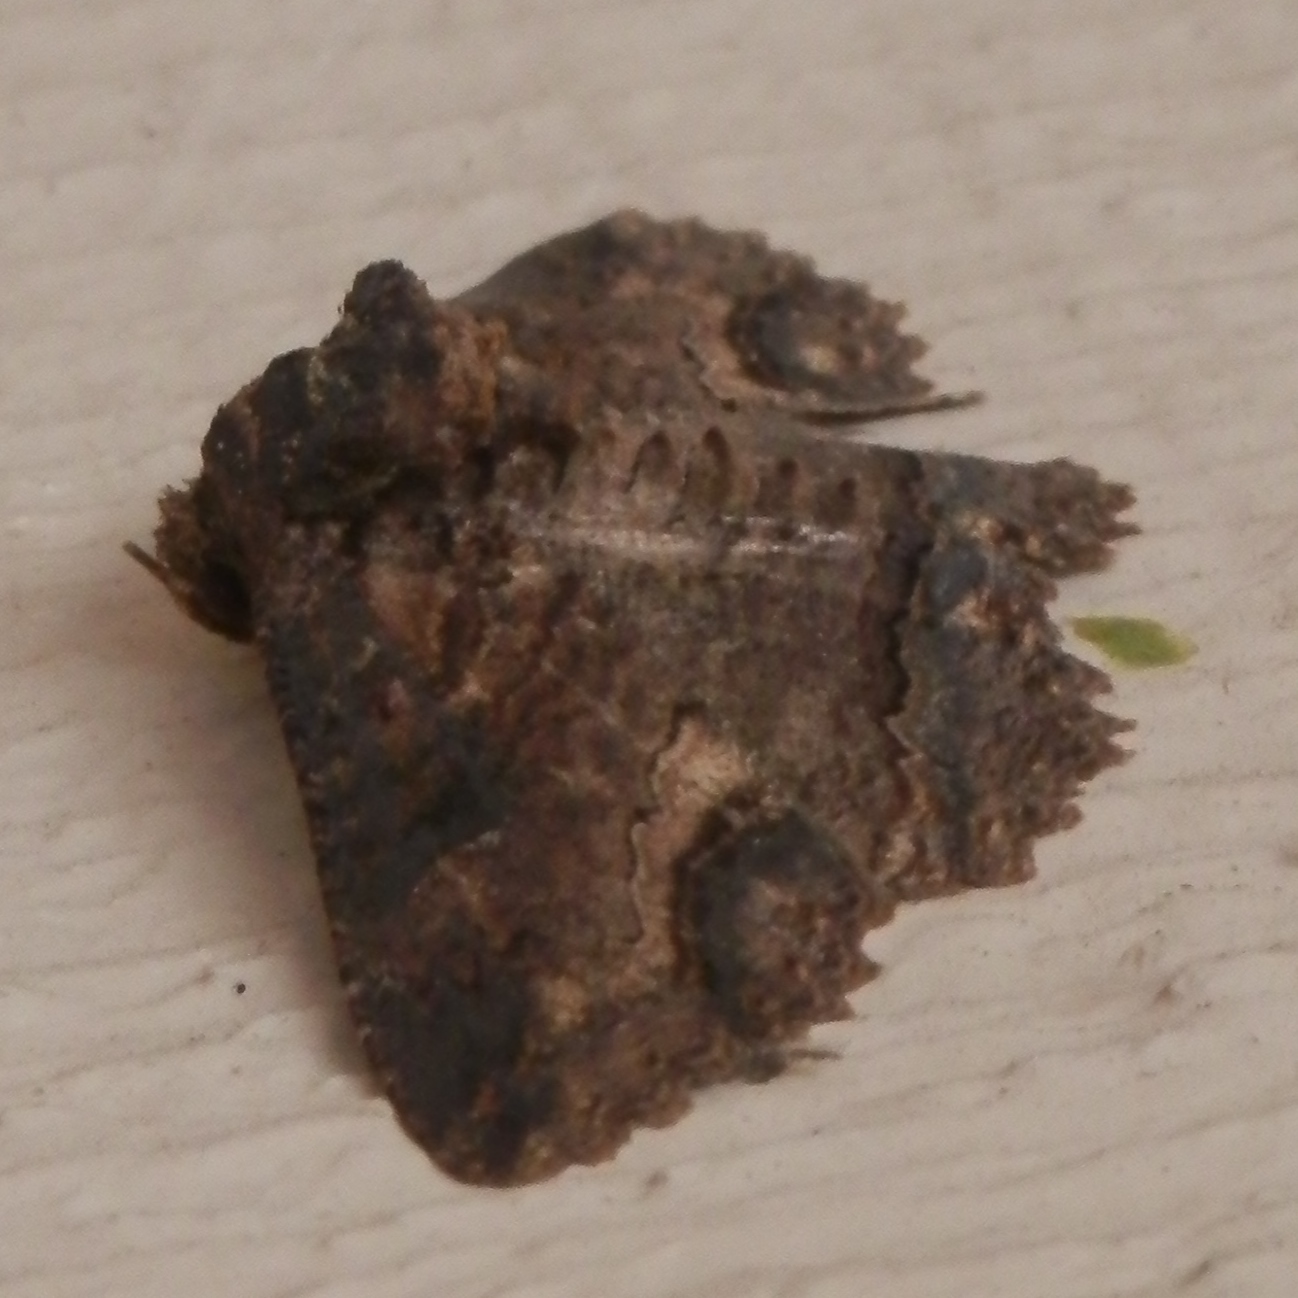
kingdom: Animalia
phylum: Arthropoda
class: Insecta
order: Lepidoptera
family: Erebidae
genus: Zale
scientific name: Zale lunata
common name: Lunate zale moth
